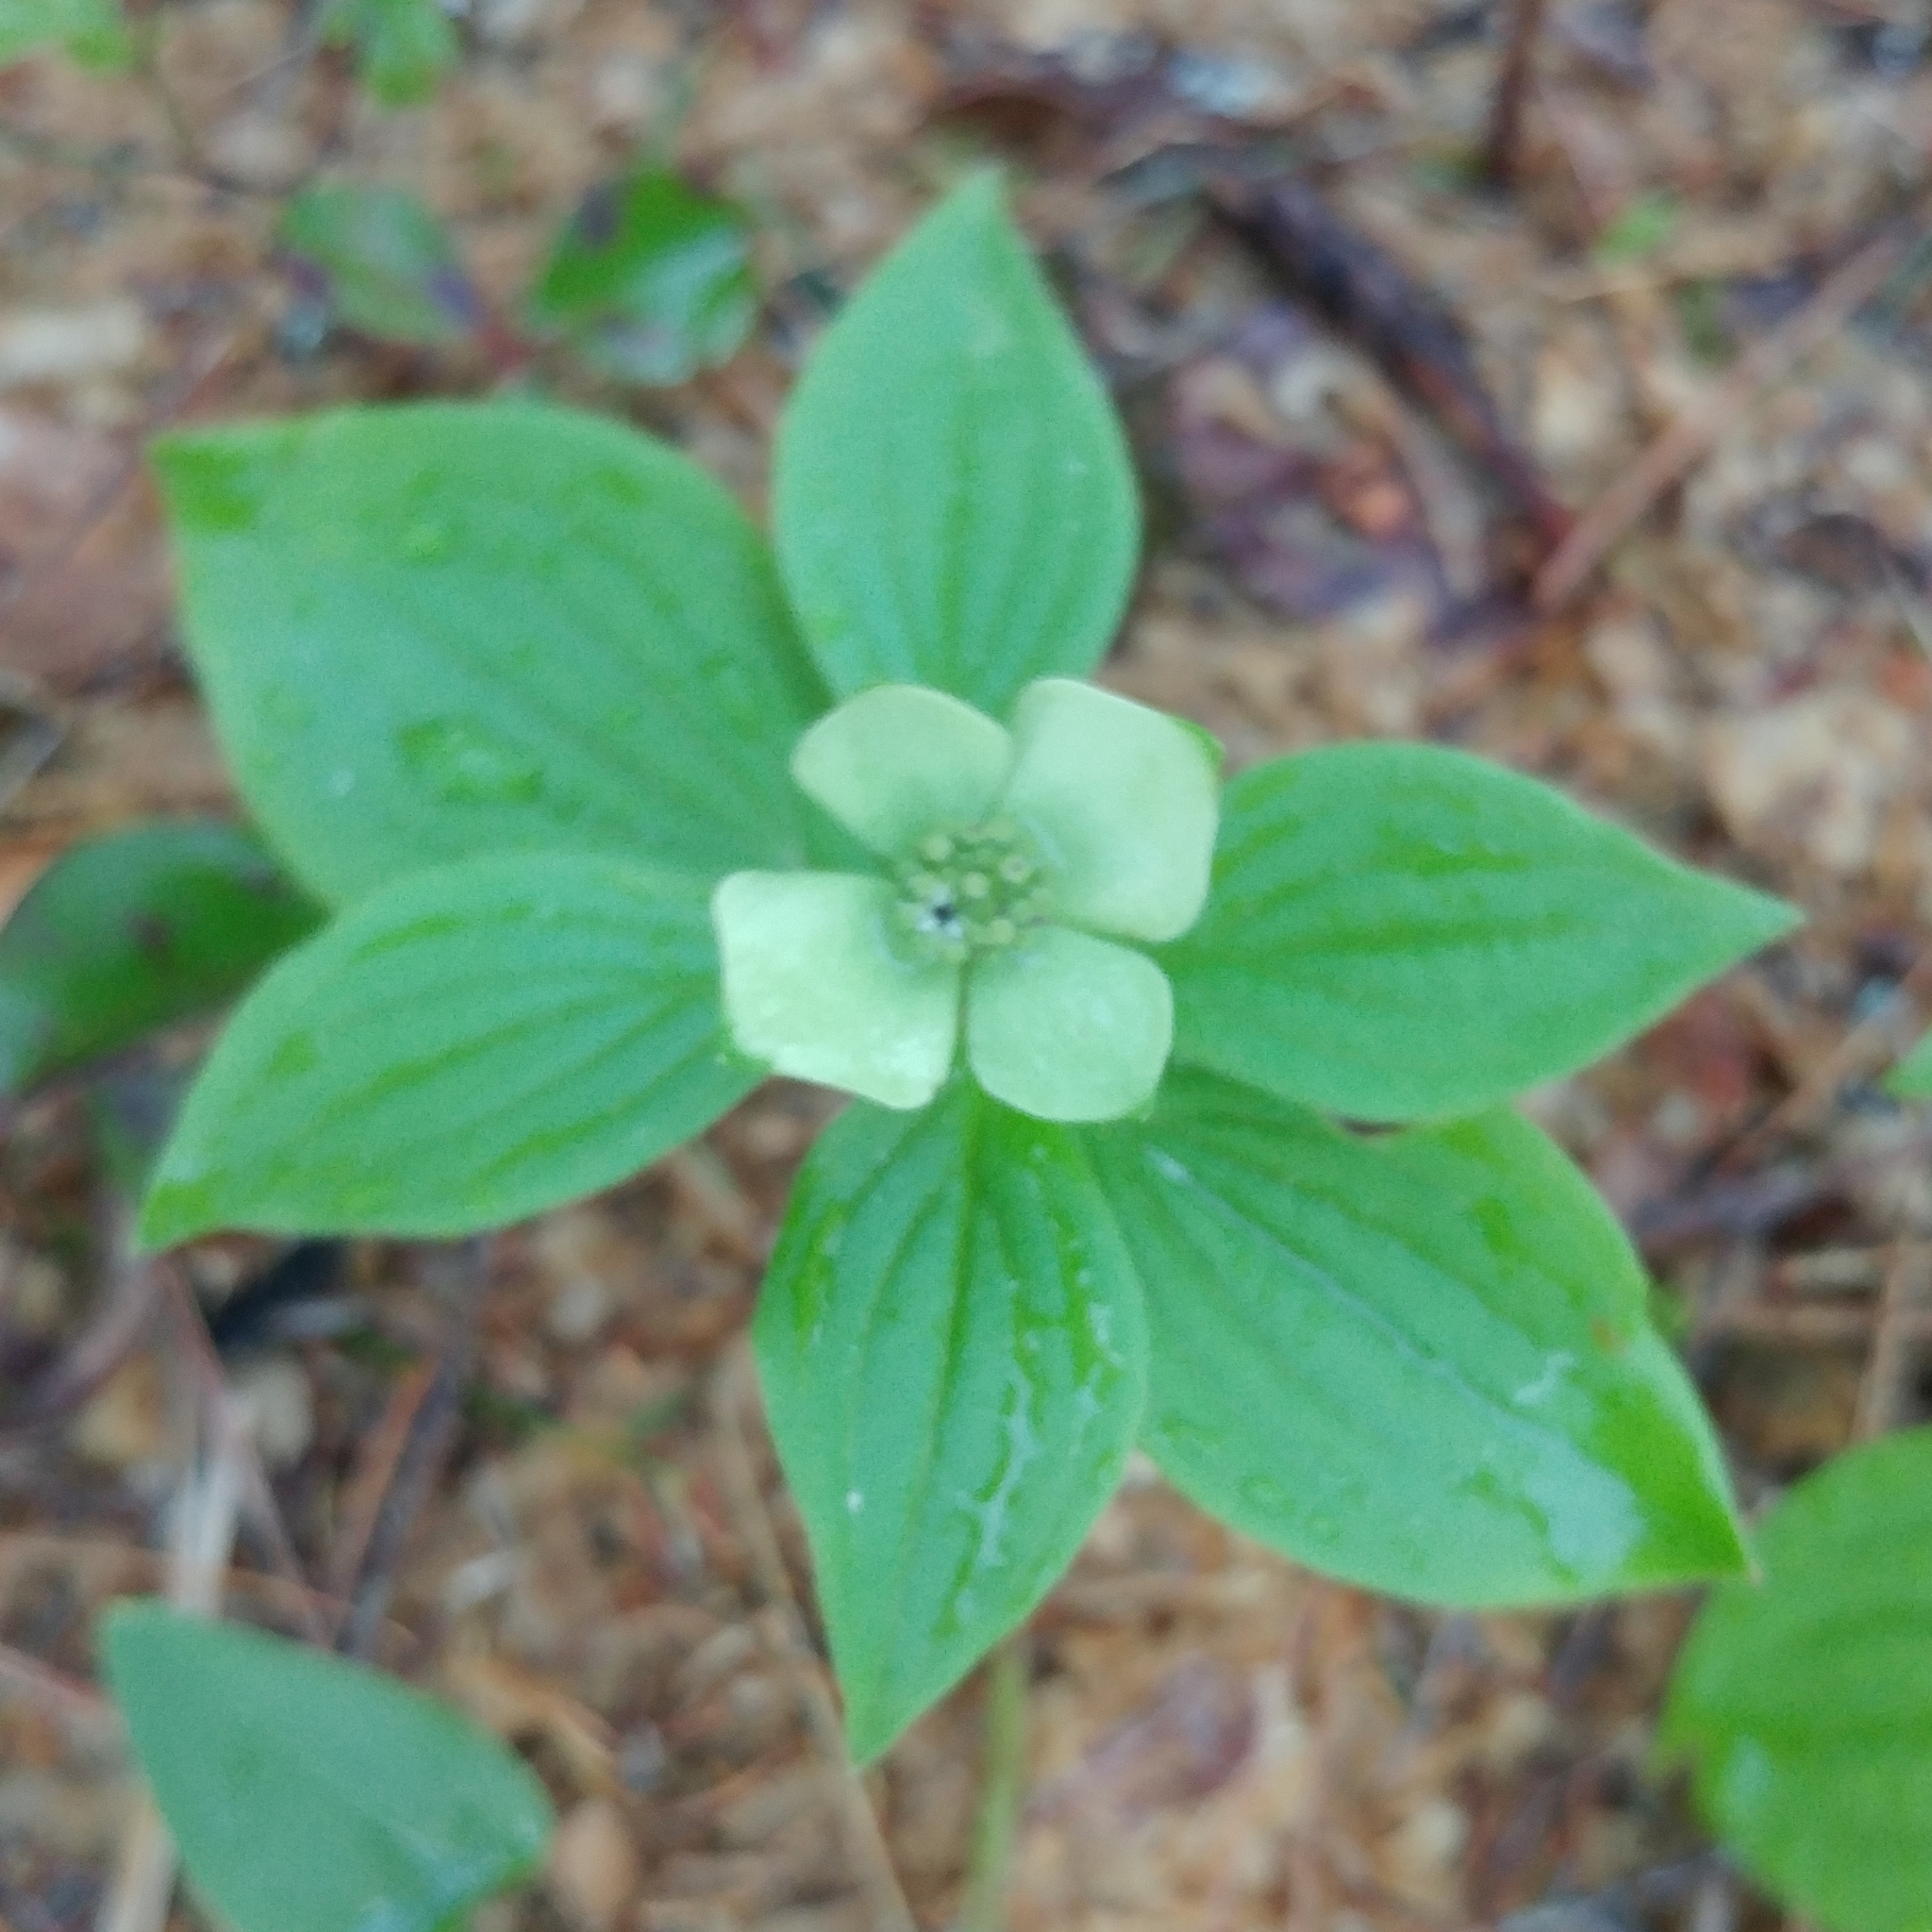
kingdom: Plantae
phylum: Tracheophyta
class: Magnoliopsida
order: Cornales
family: Cornaceae
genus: Cornus
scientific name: Cornus canadensis
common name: Creeping dogwood
